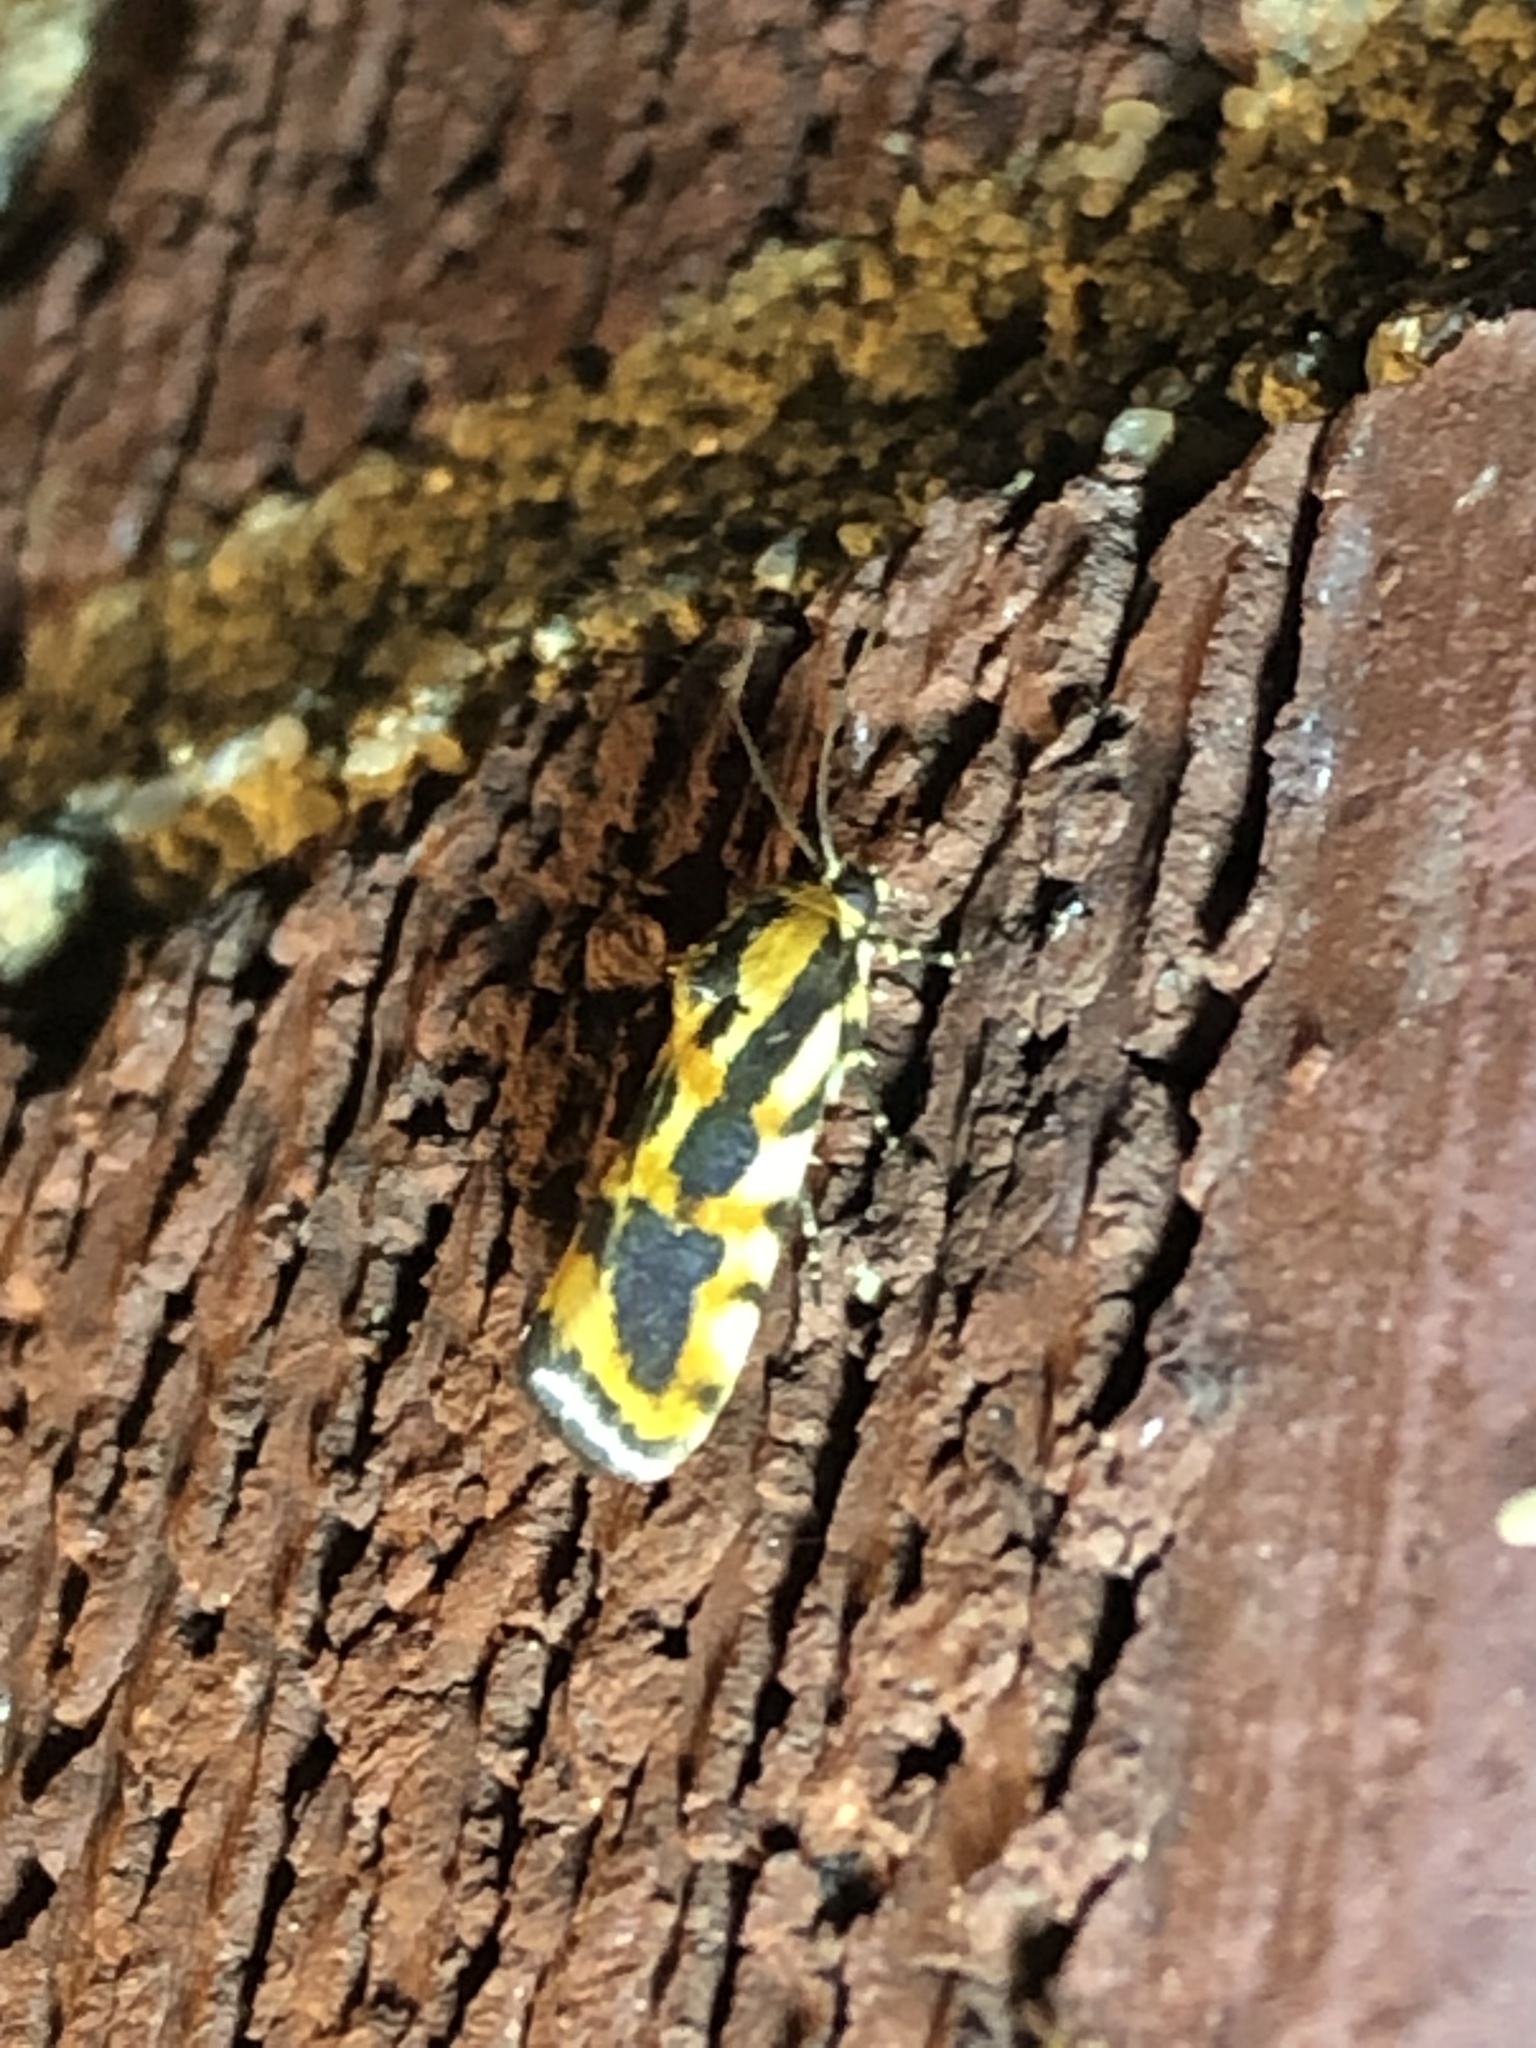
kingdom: Animalia
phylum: Arthropoda
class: Insecta
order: Lepidoptera
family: Noctuidae
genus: Acontia
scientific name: Acontia leo
